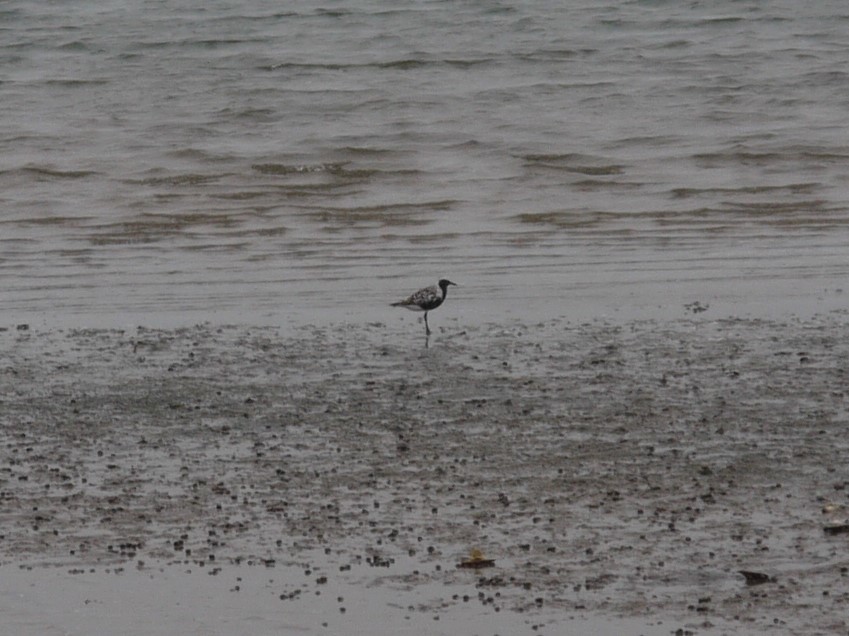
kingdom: Animalia
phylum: Chordata
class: Aves
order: Charadriiformes
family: Charadriidae
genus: Pluvialis
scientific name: Pluvialis squatarola
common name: Grey plover
